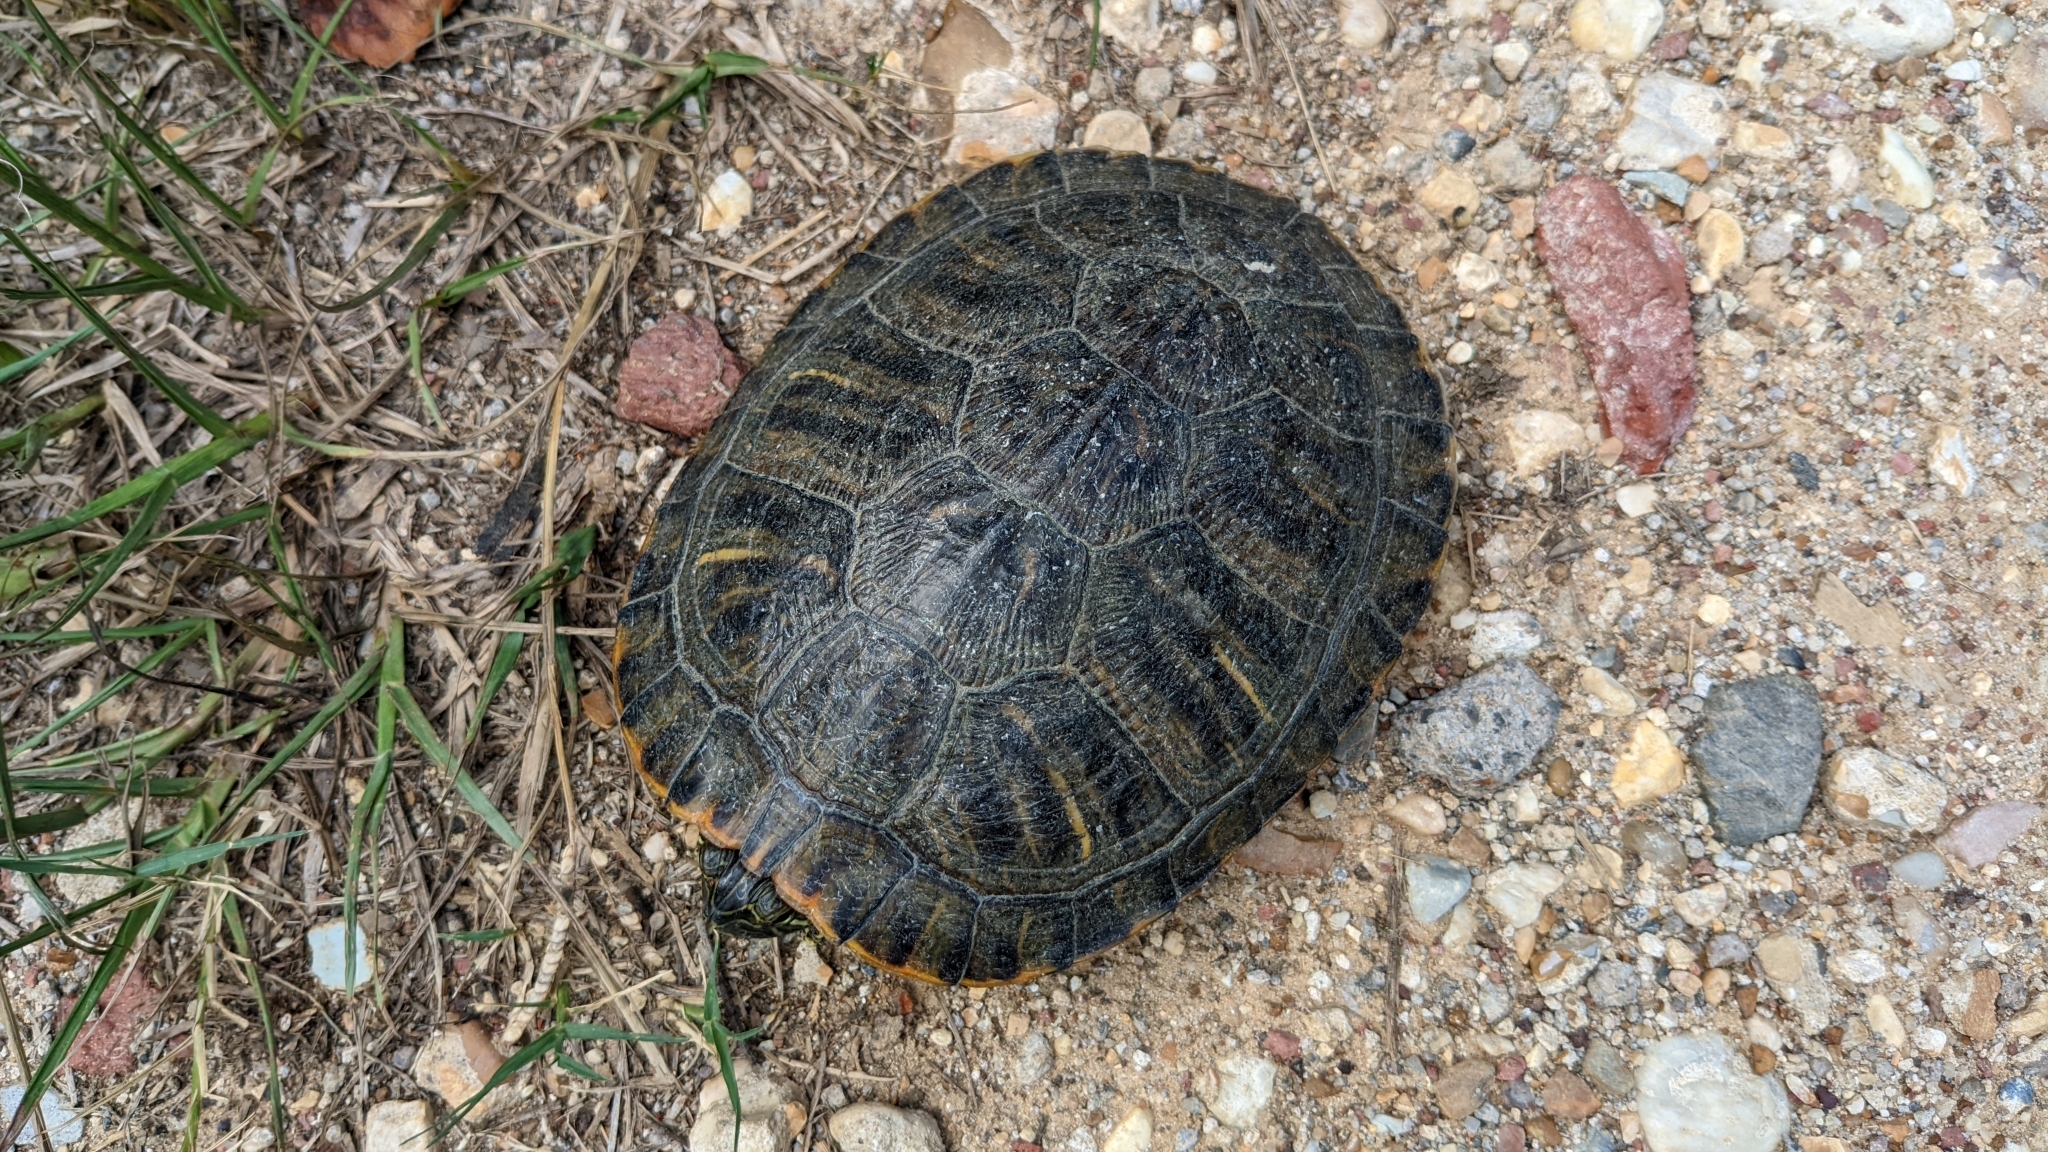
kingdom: Animalia
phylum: Chordata
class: Testudines
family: Emydidae
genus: Trachemys
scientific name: Trachemys scripta
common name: Slider
